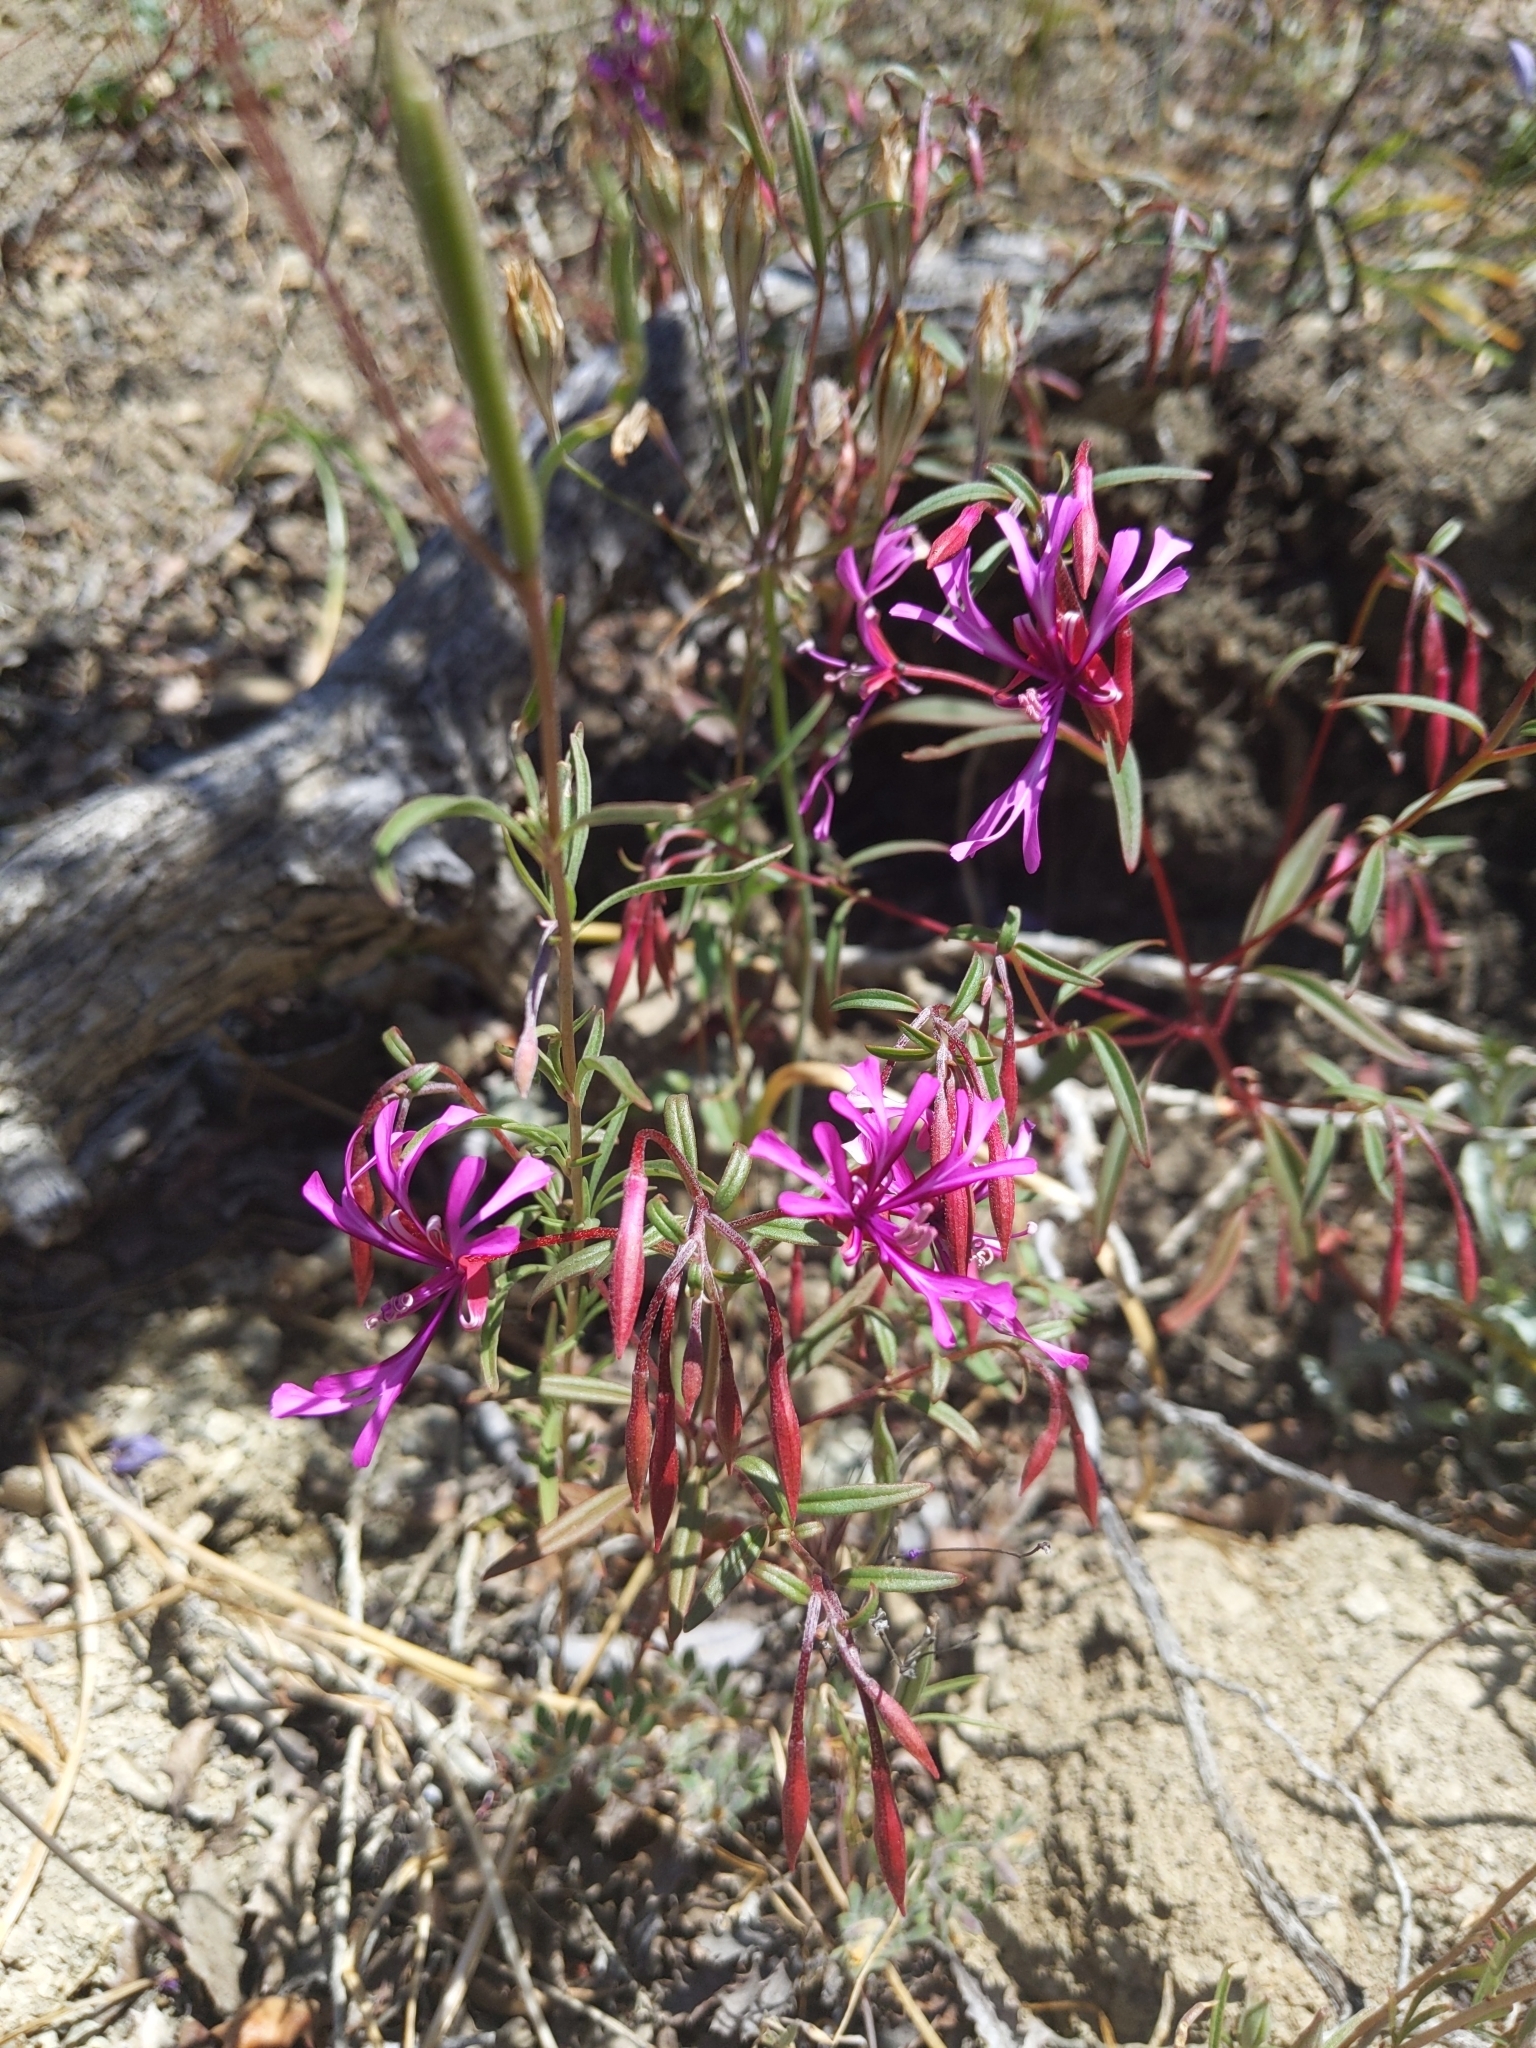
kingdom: Plantae
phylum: Tracheophyta
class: Magnoliopsida
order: Myrtales
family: Onagraceae
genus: Clarkia
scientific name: Clarkia concinna
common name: Red-ribbons
